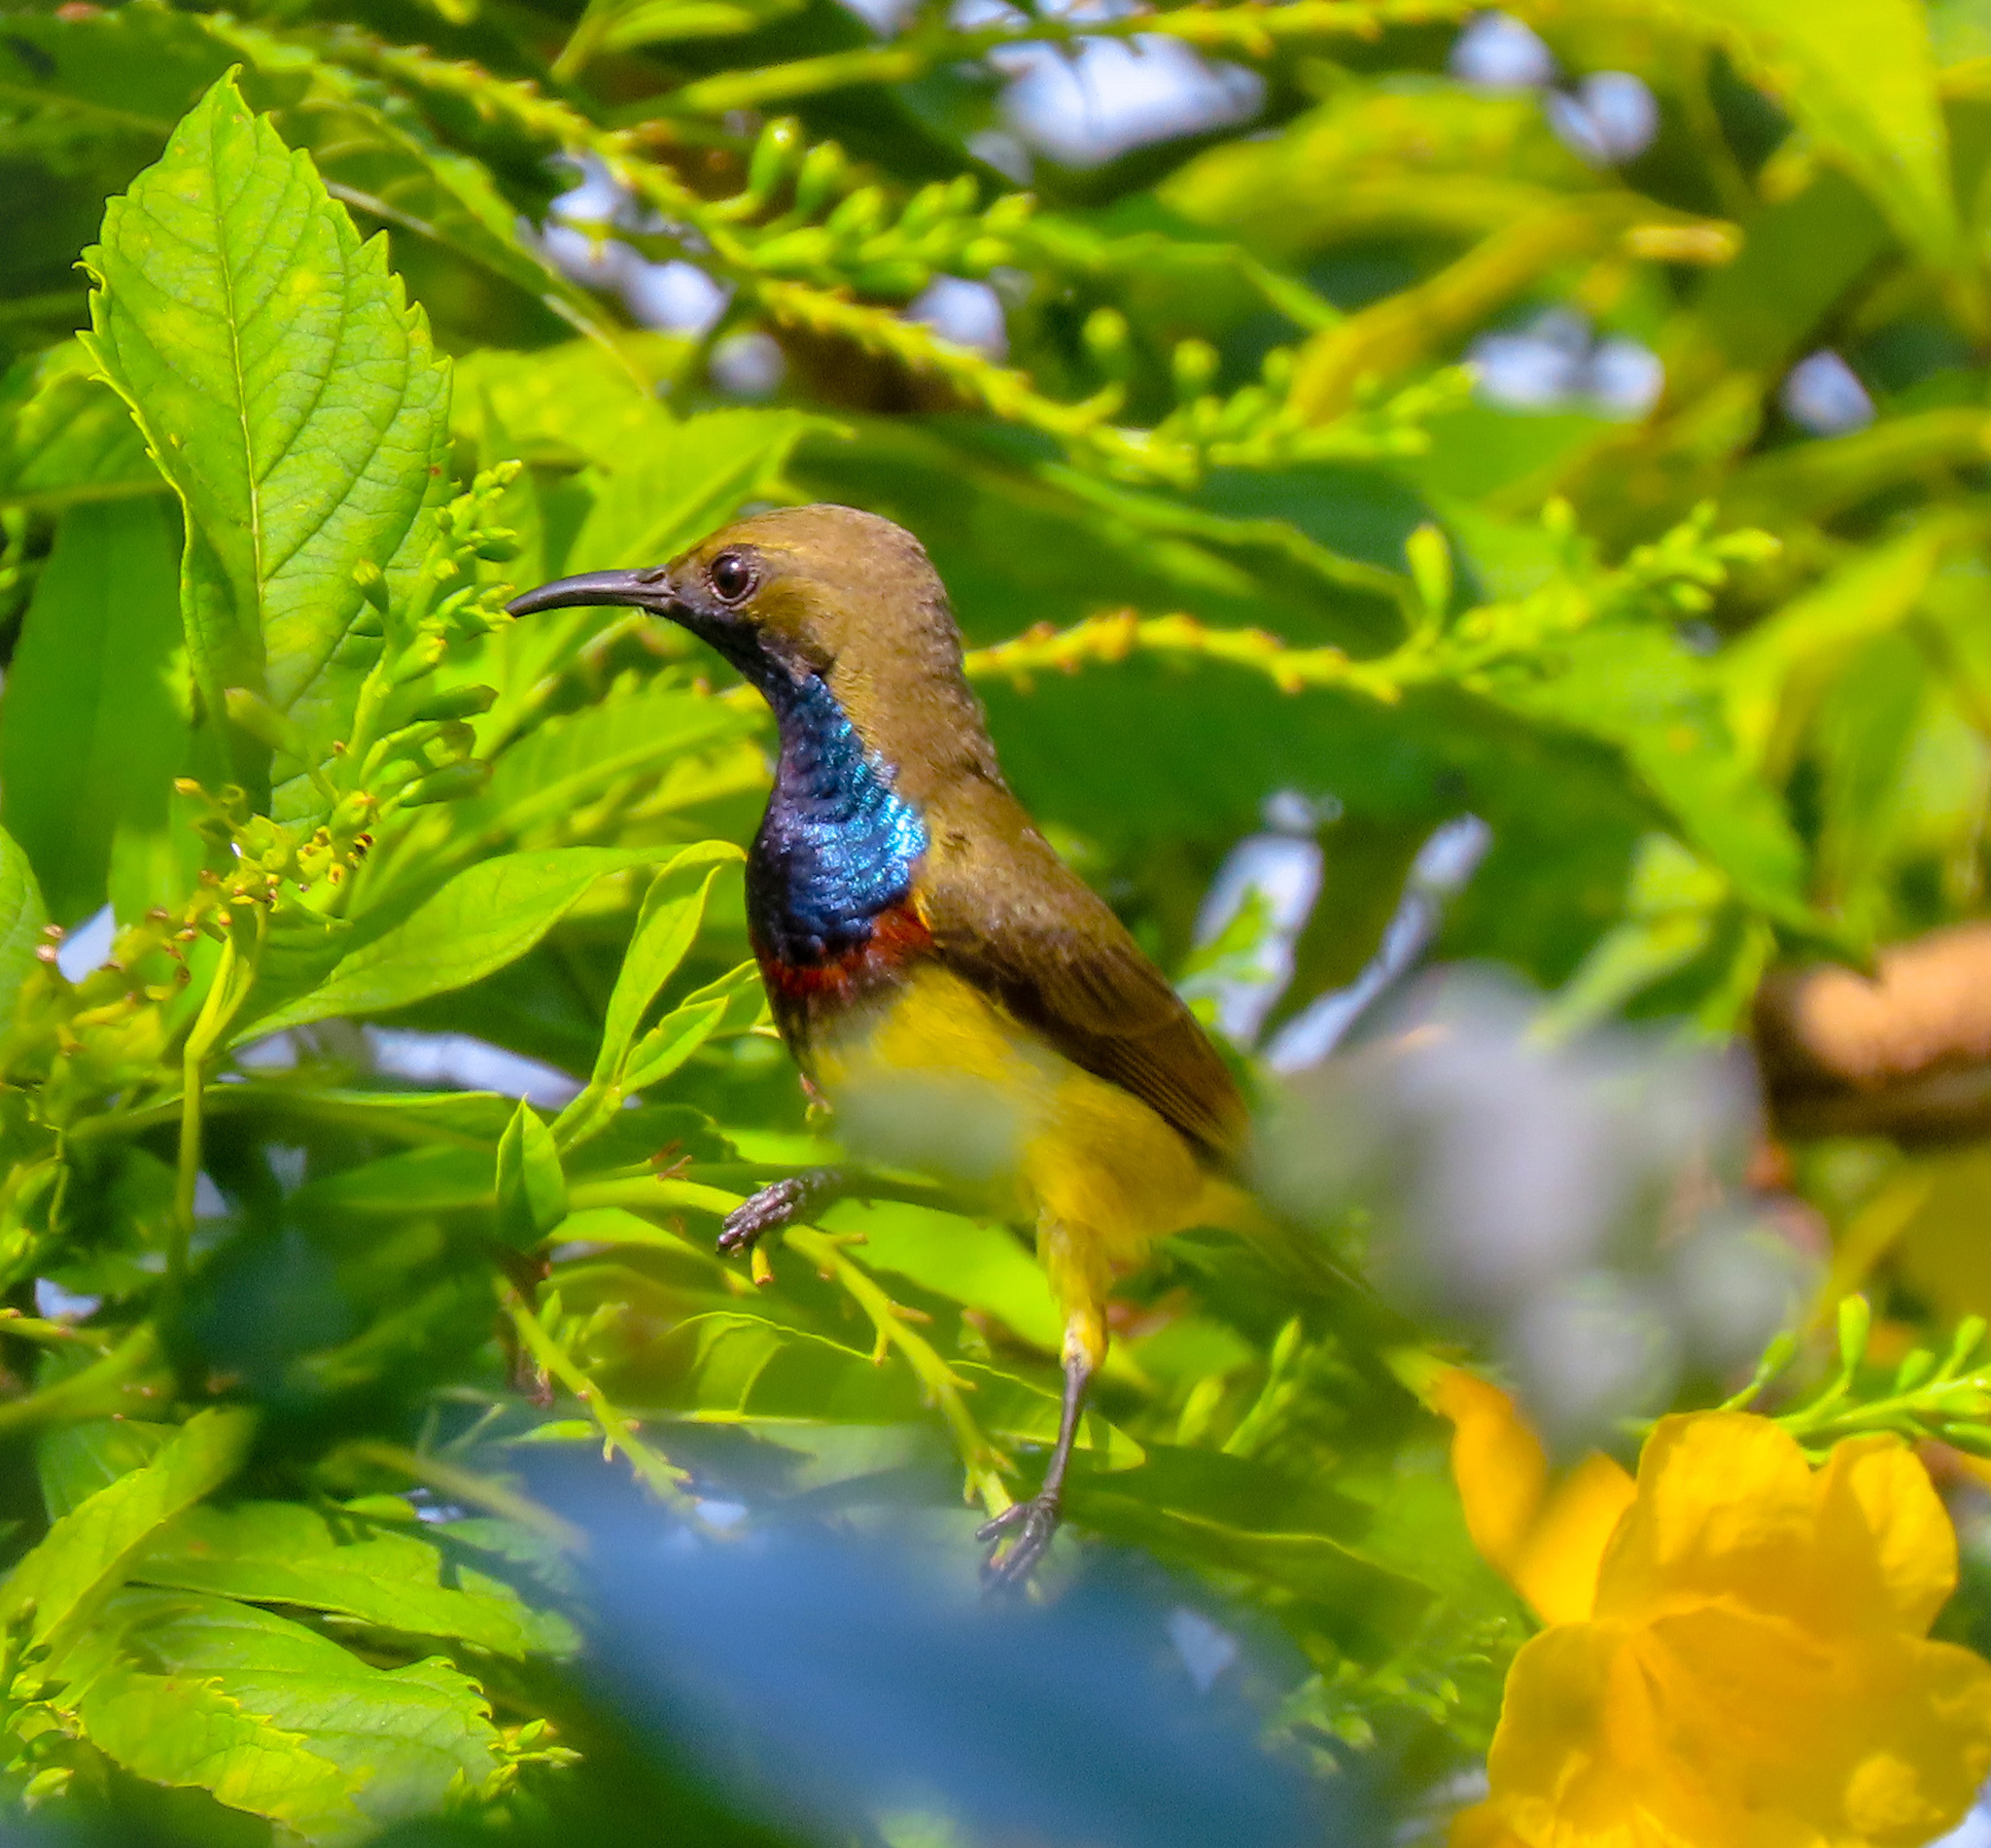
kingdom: Animalia
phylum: Chordata
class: Aves
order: Passeriformes
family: Nectariniidae
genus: Cinnyris
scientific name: Cinnyris
